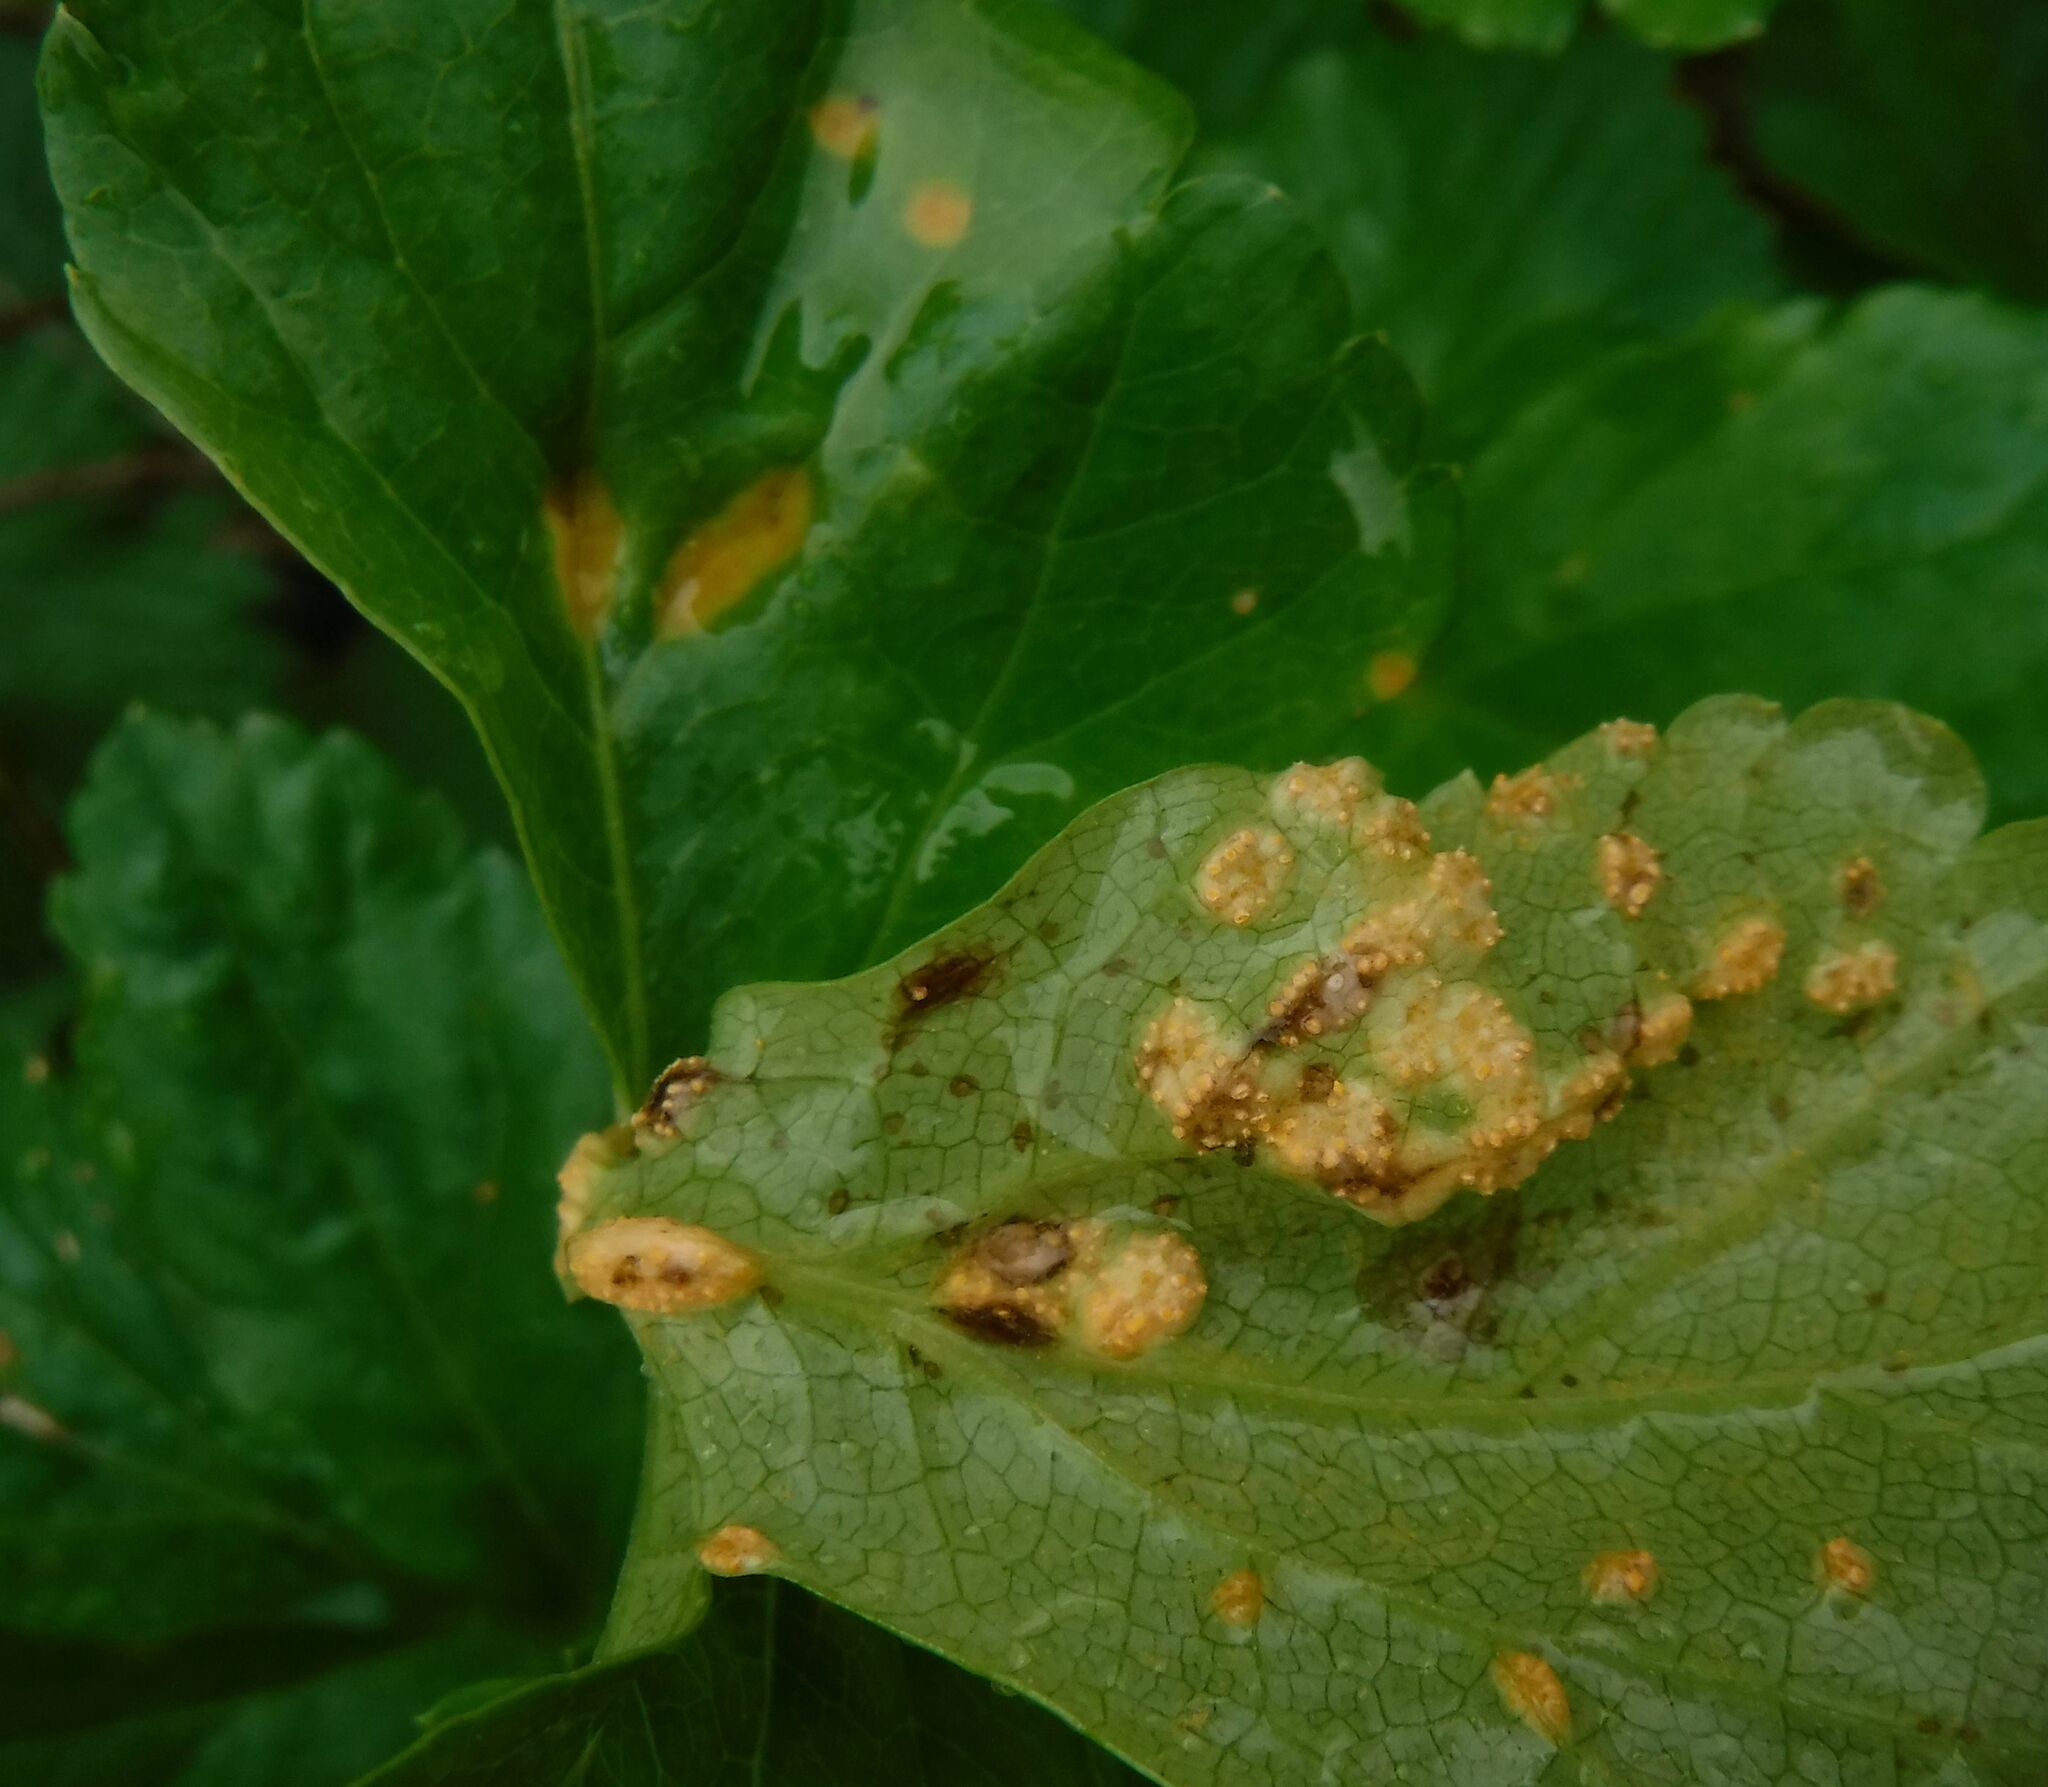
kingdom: Fungi
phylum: Basidiomycota
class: Pucciniomycetes
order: Pucciniales
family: Pucciniaceae
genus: Puccinia
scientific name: Puccinia smyrnii
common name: Alexanders rust
